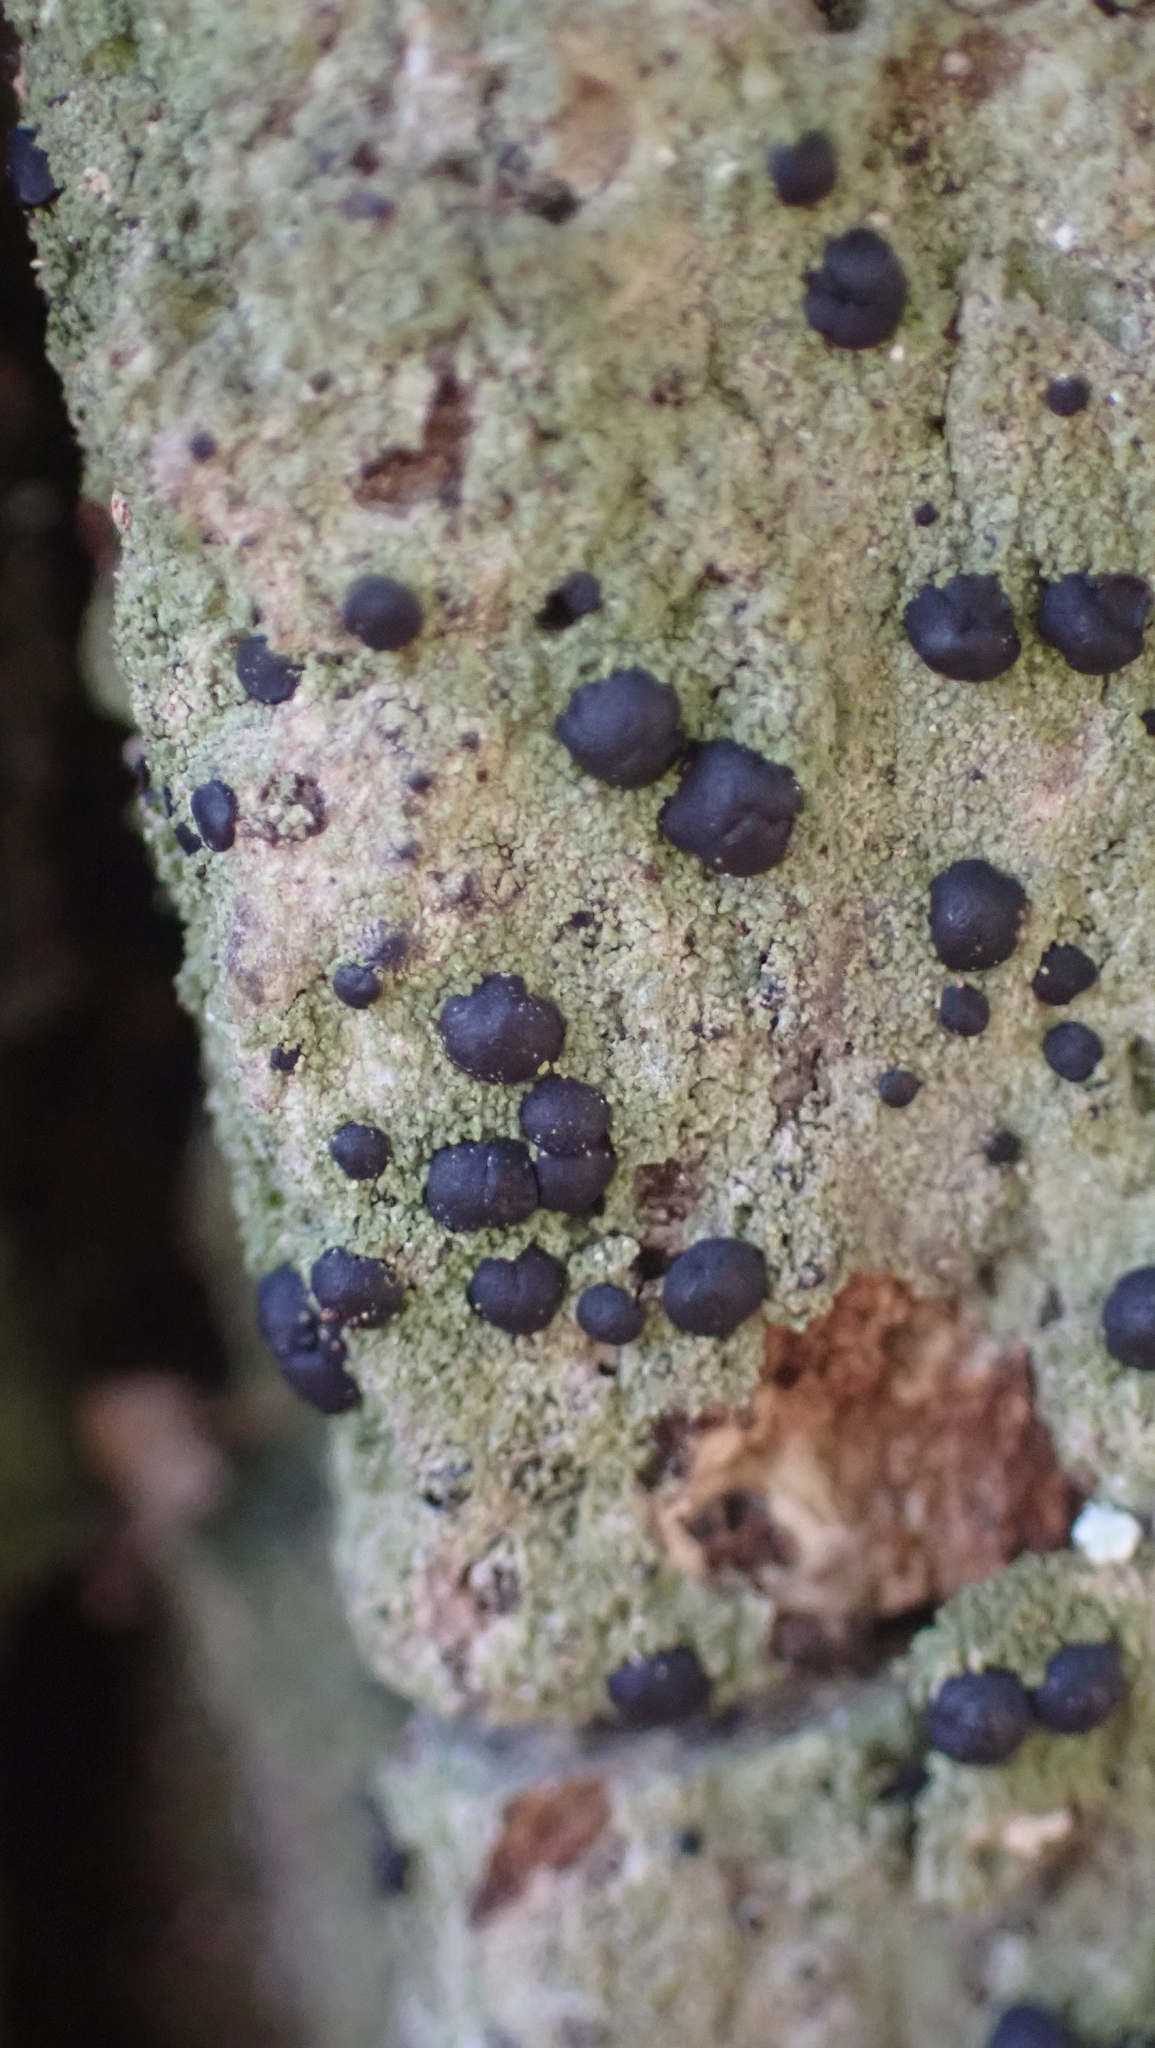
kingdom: Fungi
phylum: Ascomycota
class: Lecanoromycetes
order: Lecanorales
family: Ramalinaceae
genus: Bacidia
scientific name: Bacidia schweinitzii
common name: Surprise lichen
